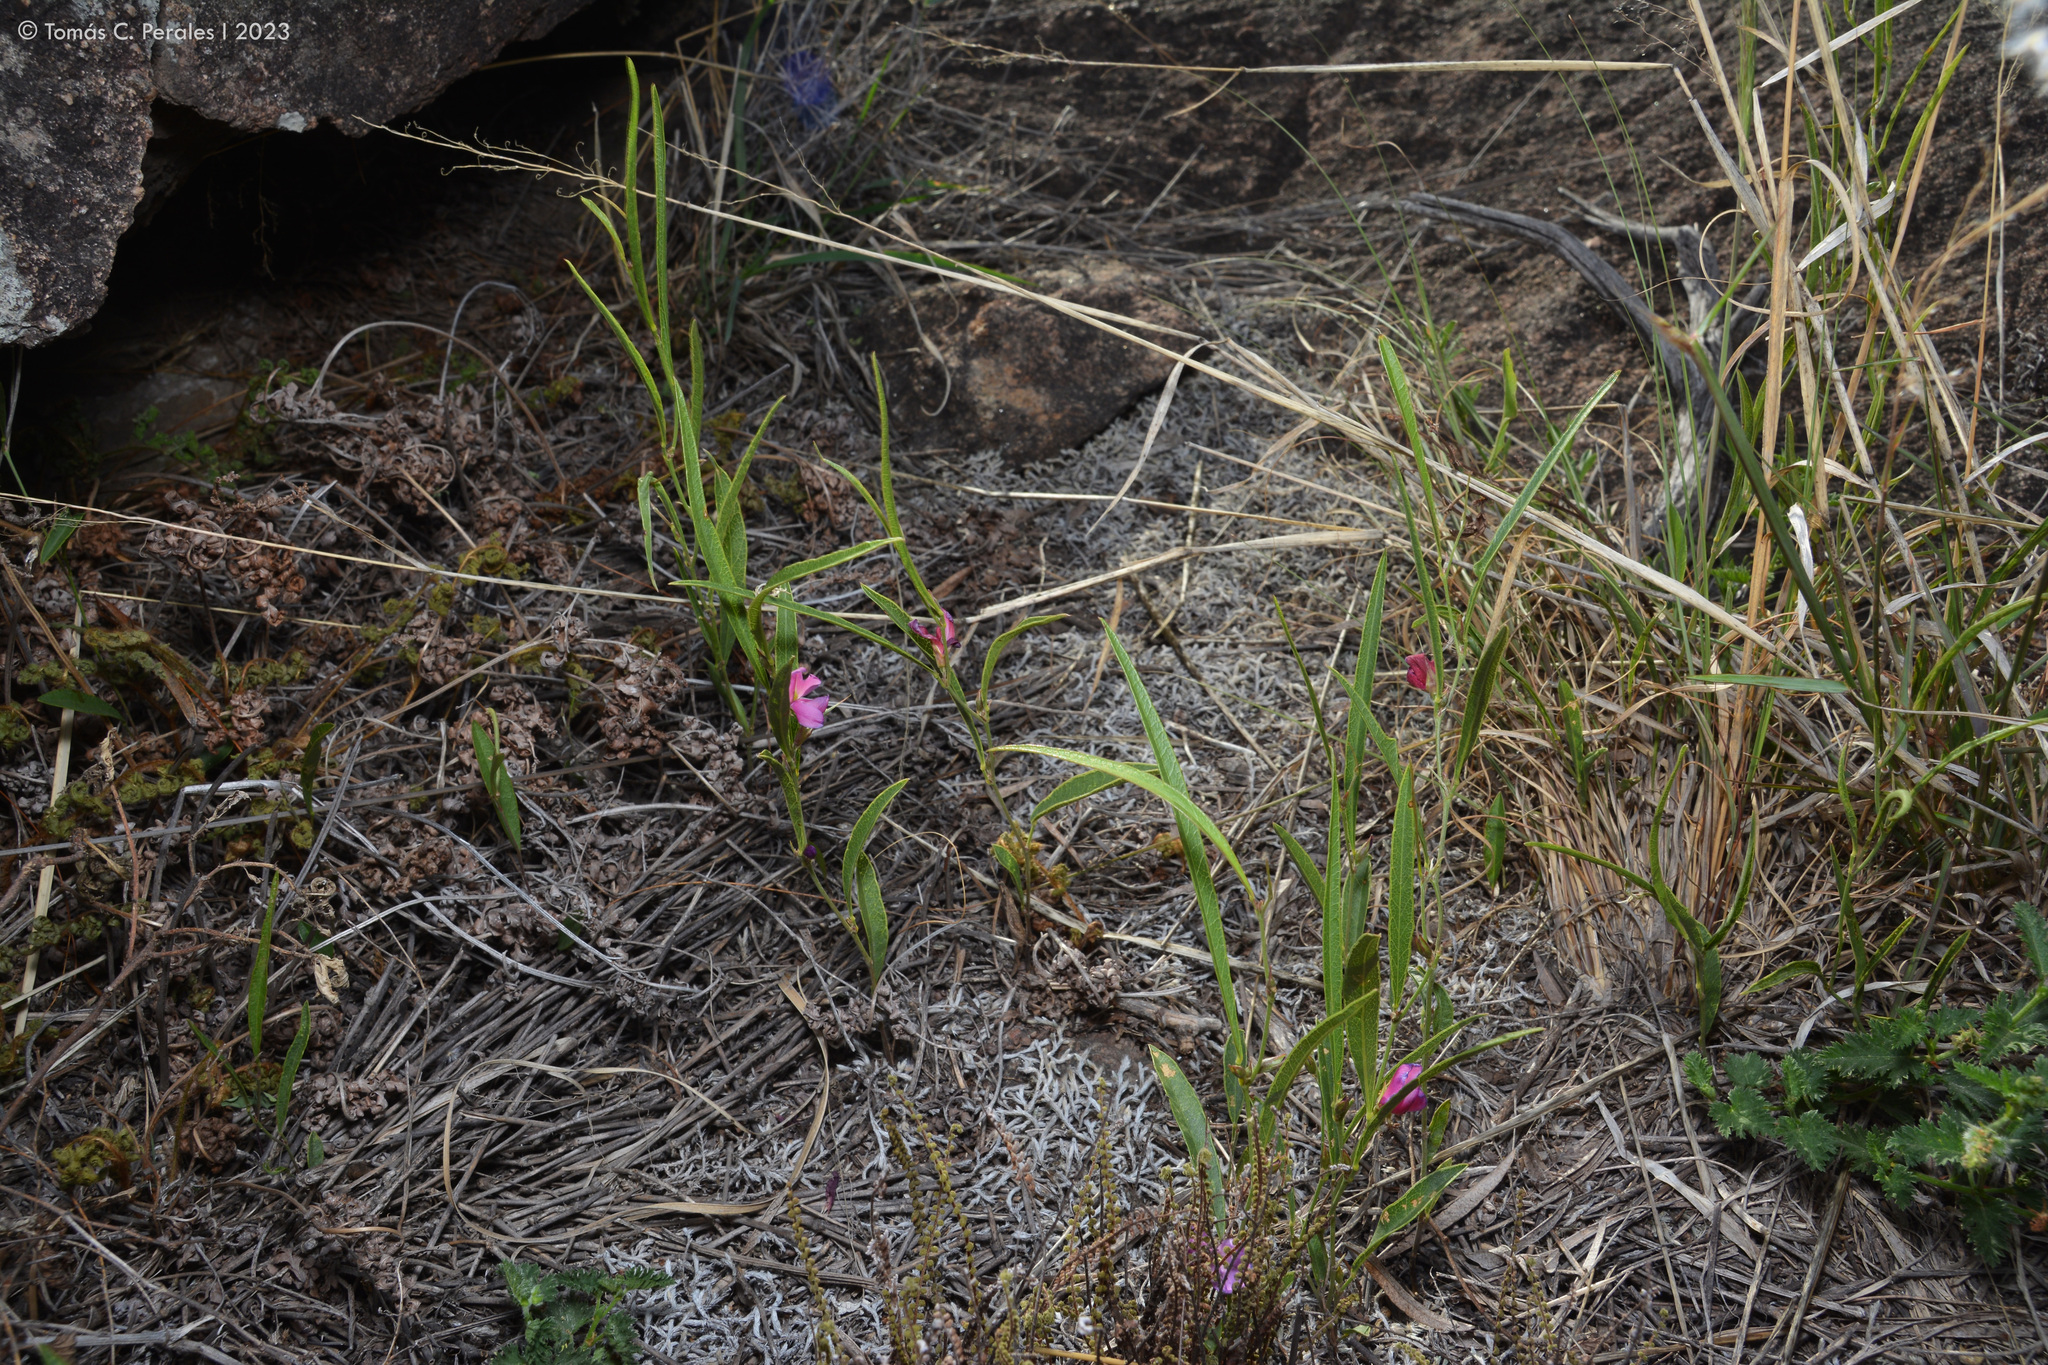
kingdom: Plantae
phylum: Tracheophyta
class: Magnoliopsida
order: Fabales
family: Fabaceae
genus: Nanogalactia
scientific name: Nanogalactia heterophylla
